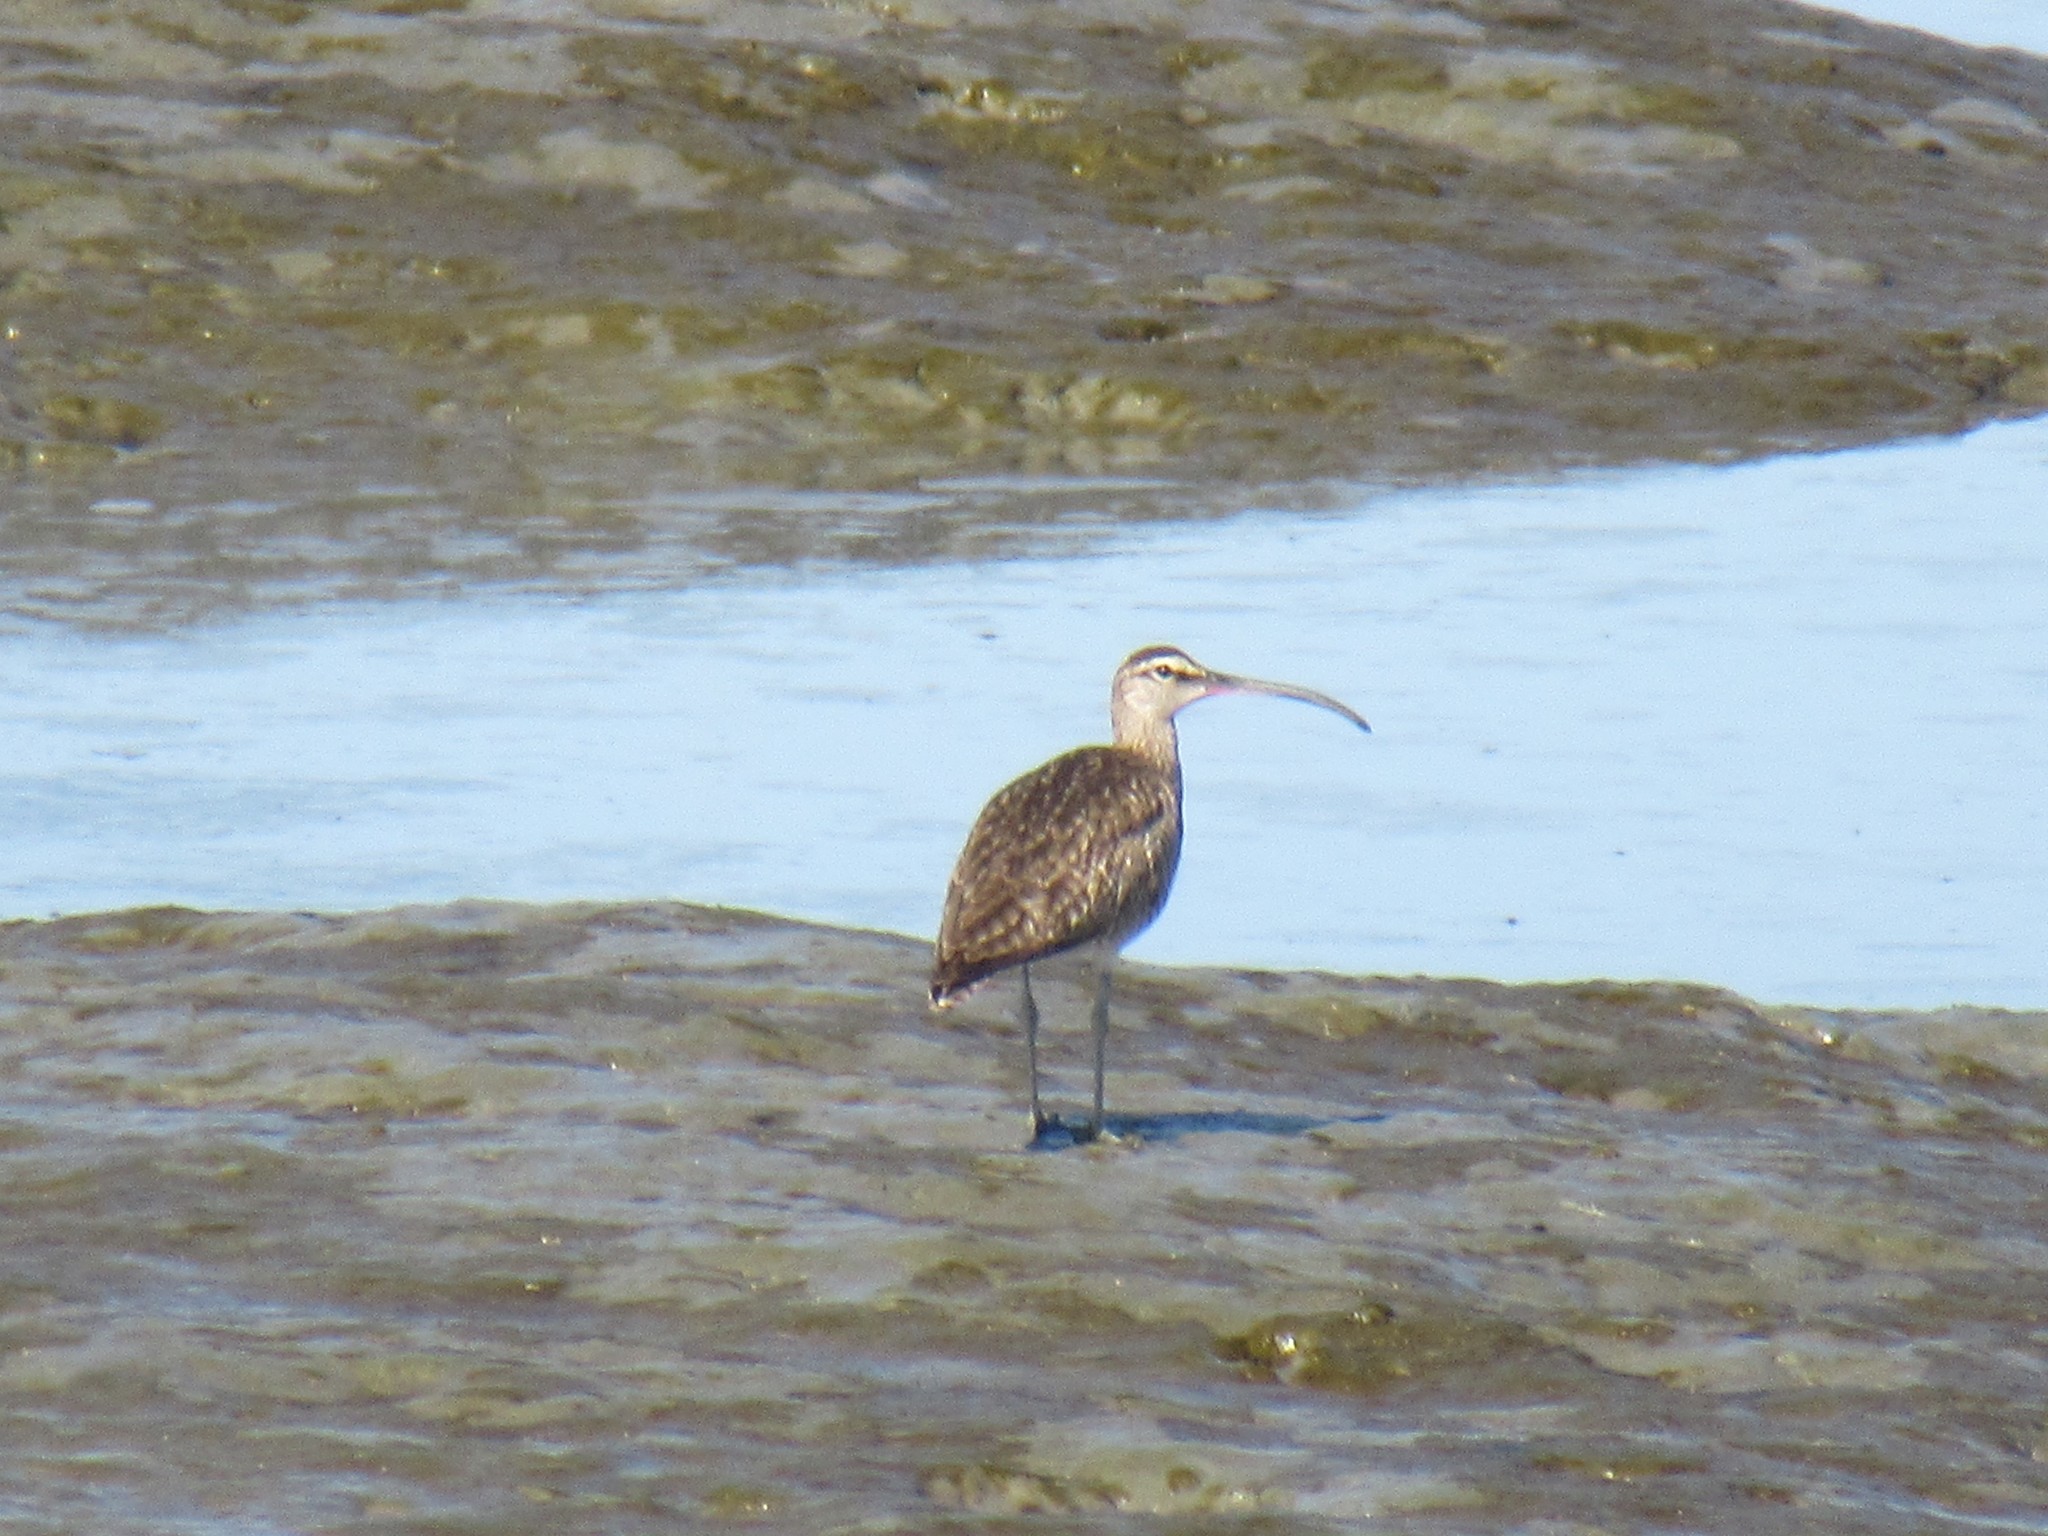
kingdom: Animalia
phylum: Chordata
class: Aves
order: Charadriiformes
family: Scolopacidae
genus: Numenius
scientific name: Numenius phaeopus
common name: Whimbrel
